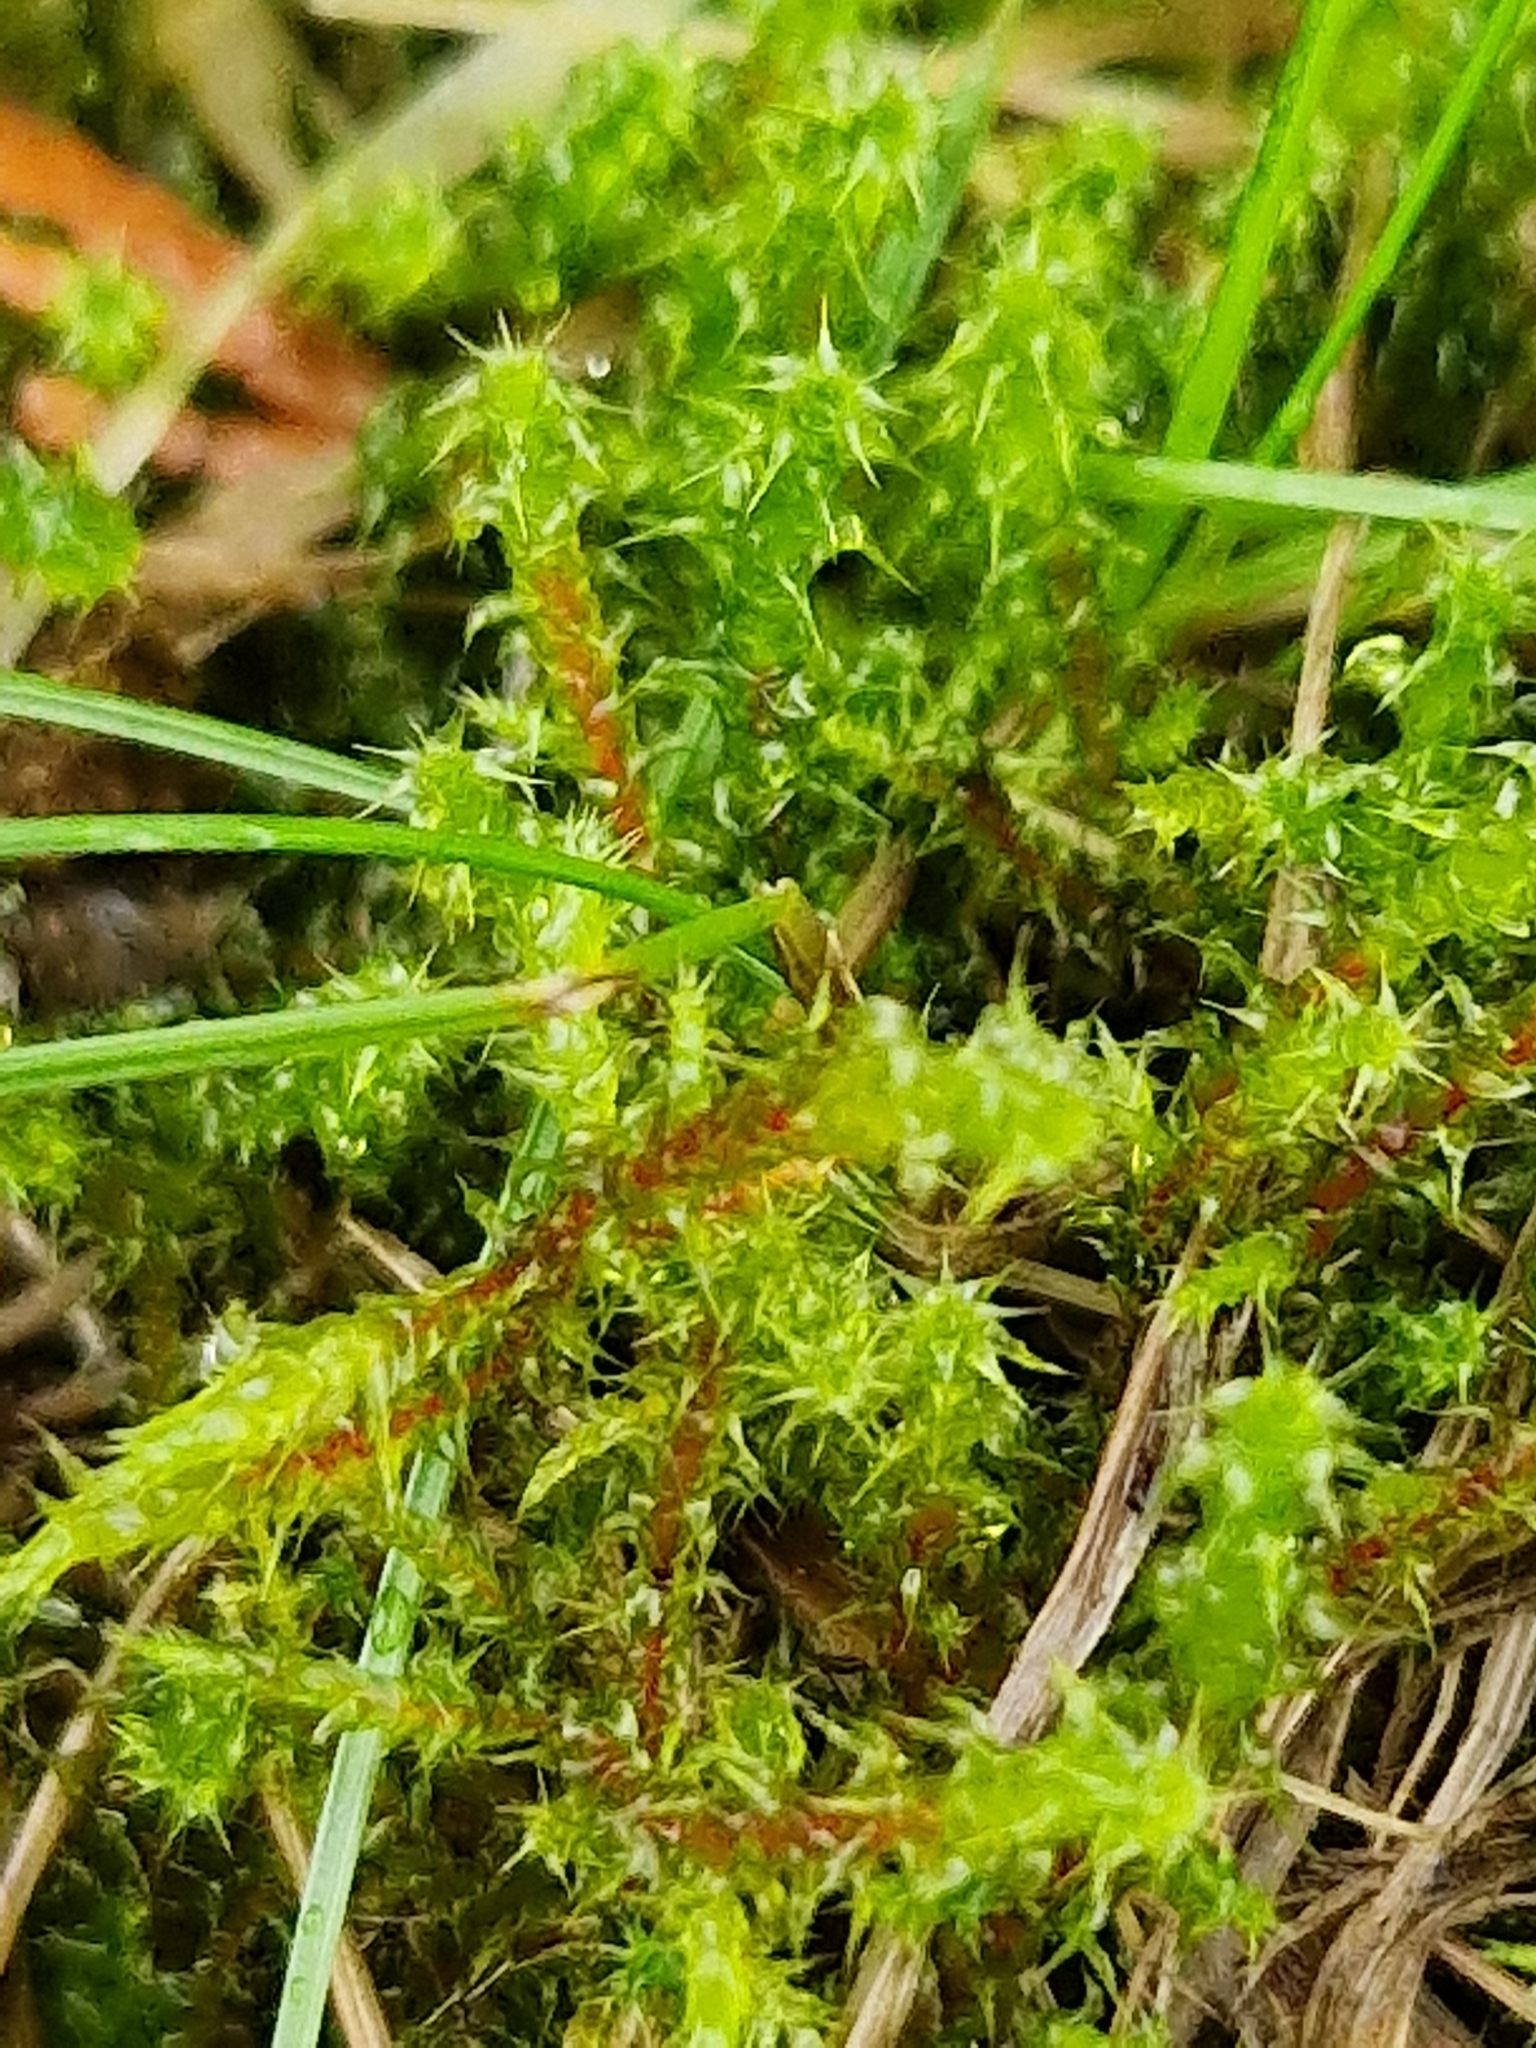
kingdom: Plantae
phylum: Bryophyta
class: Bryopsida
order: Hypnales
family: Hylocomiaceae
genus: Rhytidiadelphus
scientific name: Rhytidiadelphus squarrosus
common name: Springy turf-moss
